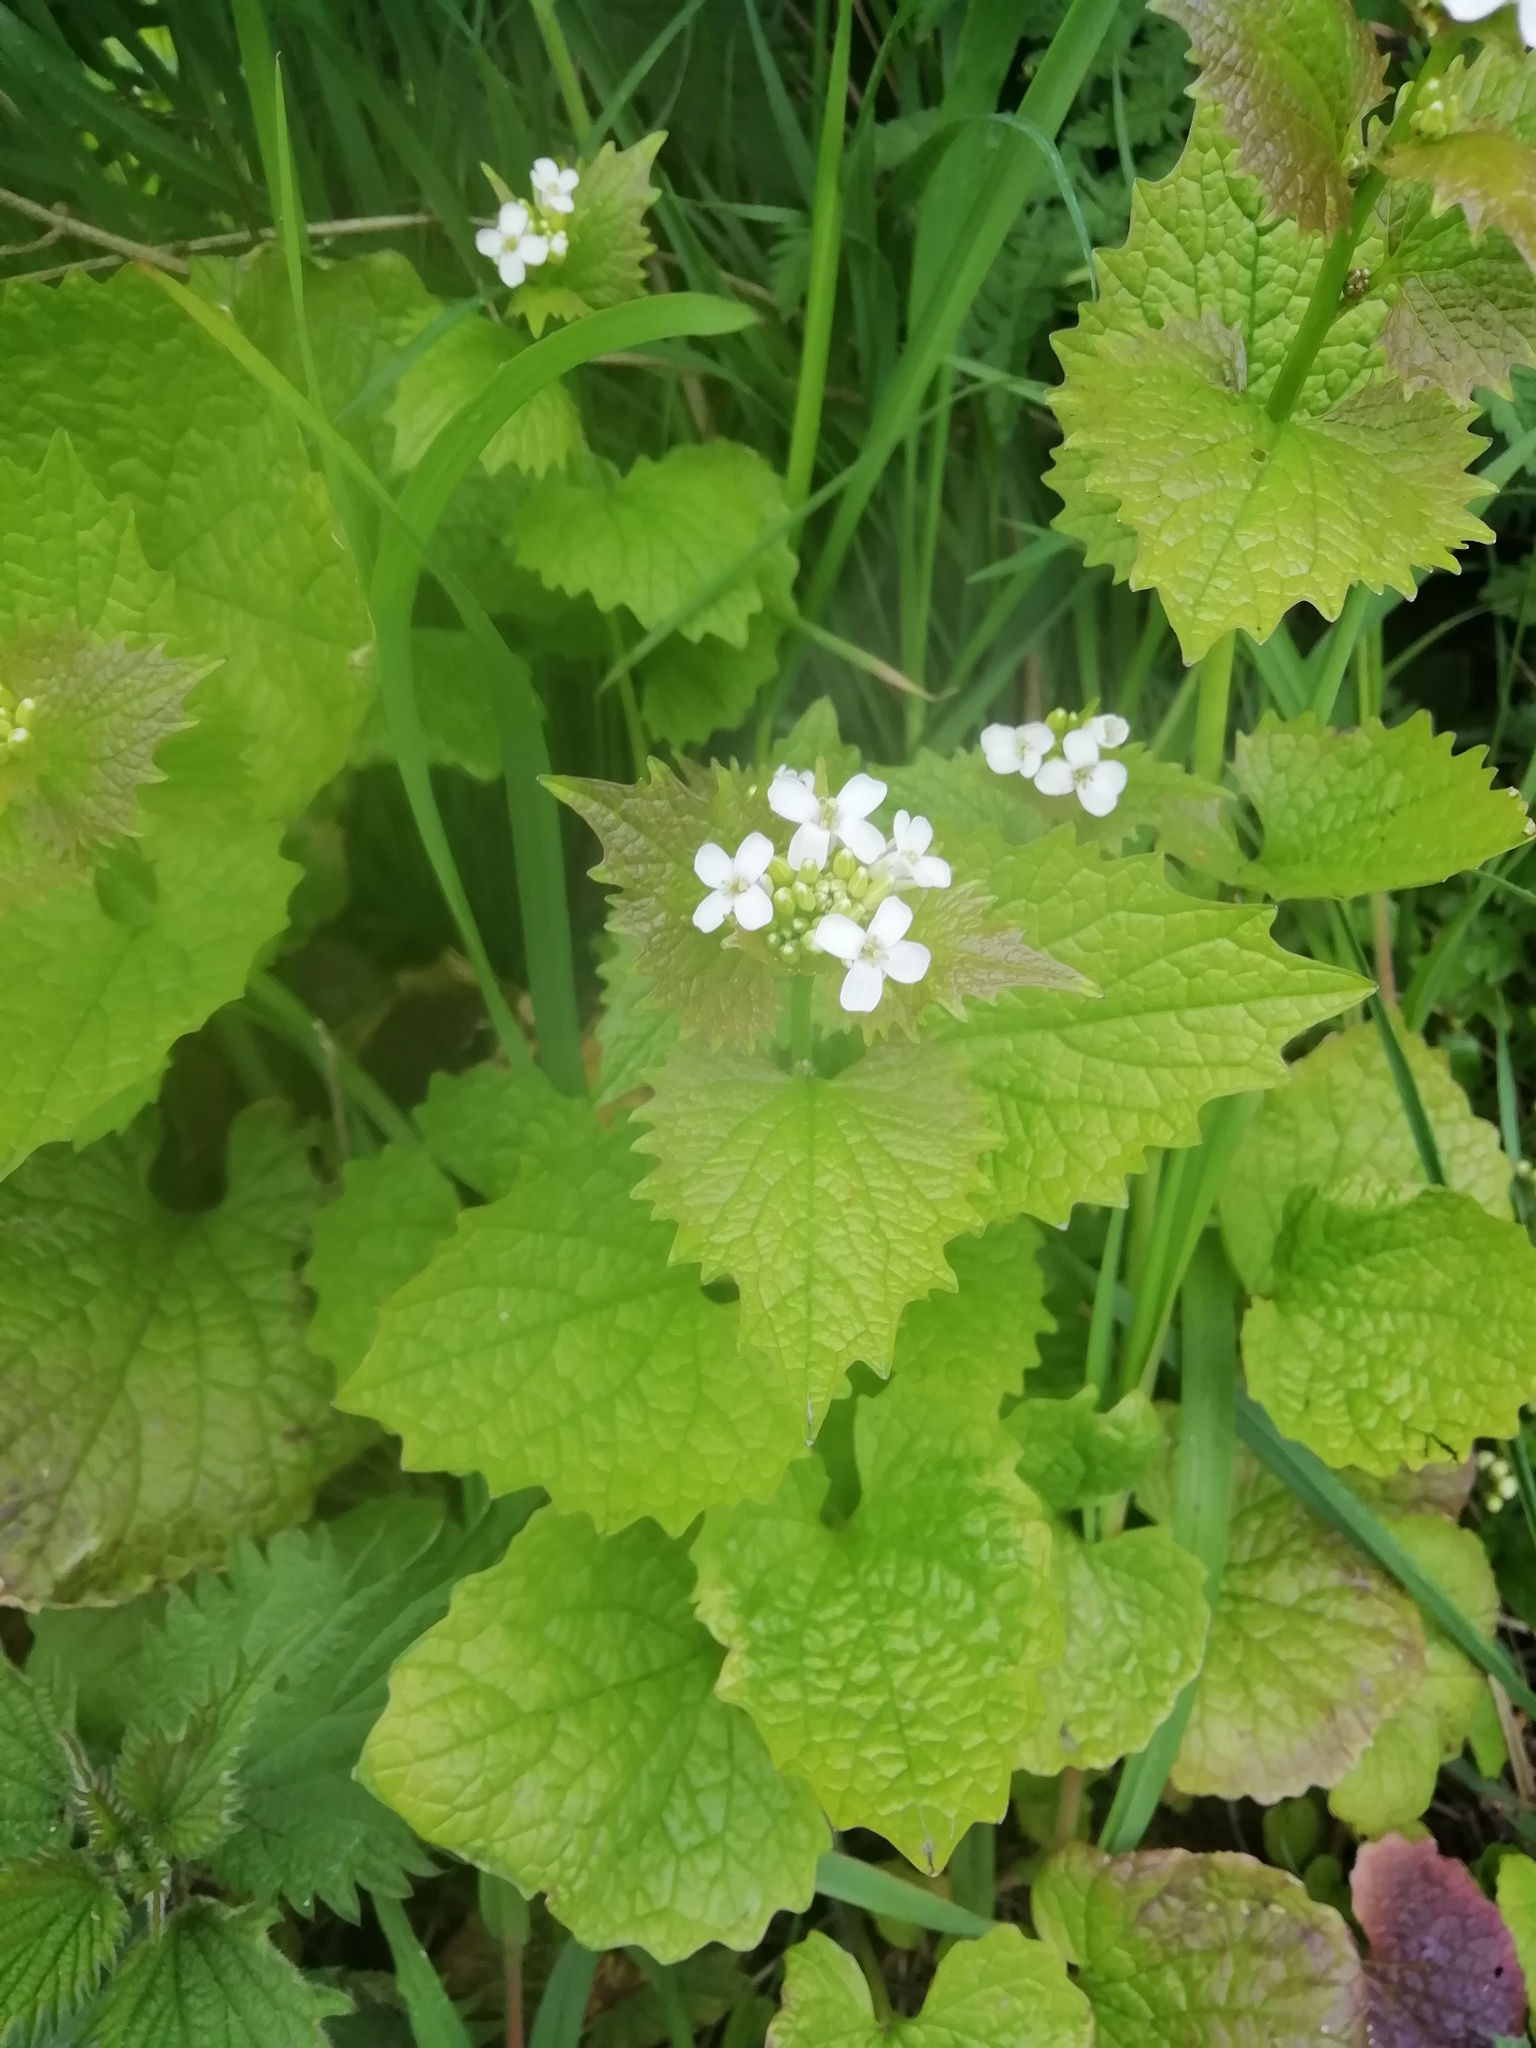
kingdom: Plantae
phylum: Tracheophyta
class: Magnoliopsida
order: Brassicales
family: Brassicaceae
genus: Alliaria
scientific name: Alliaria petiolata
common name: Garlic mustard
